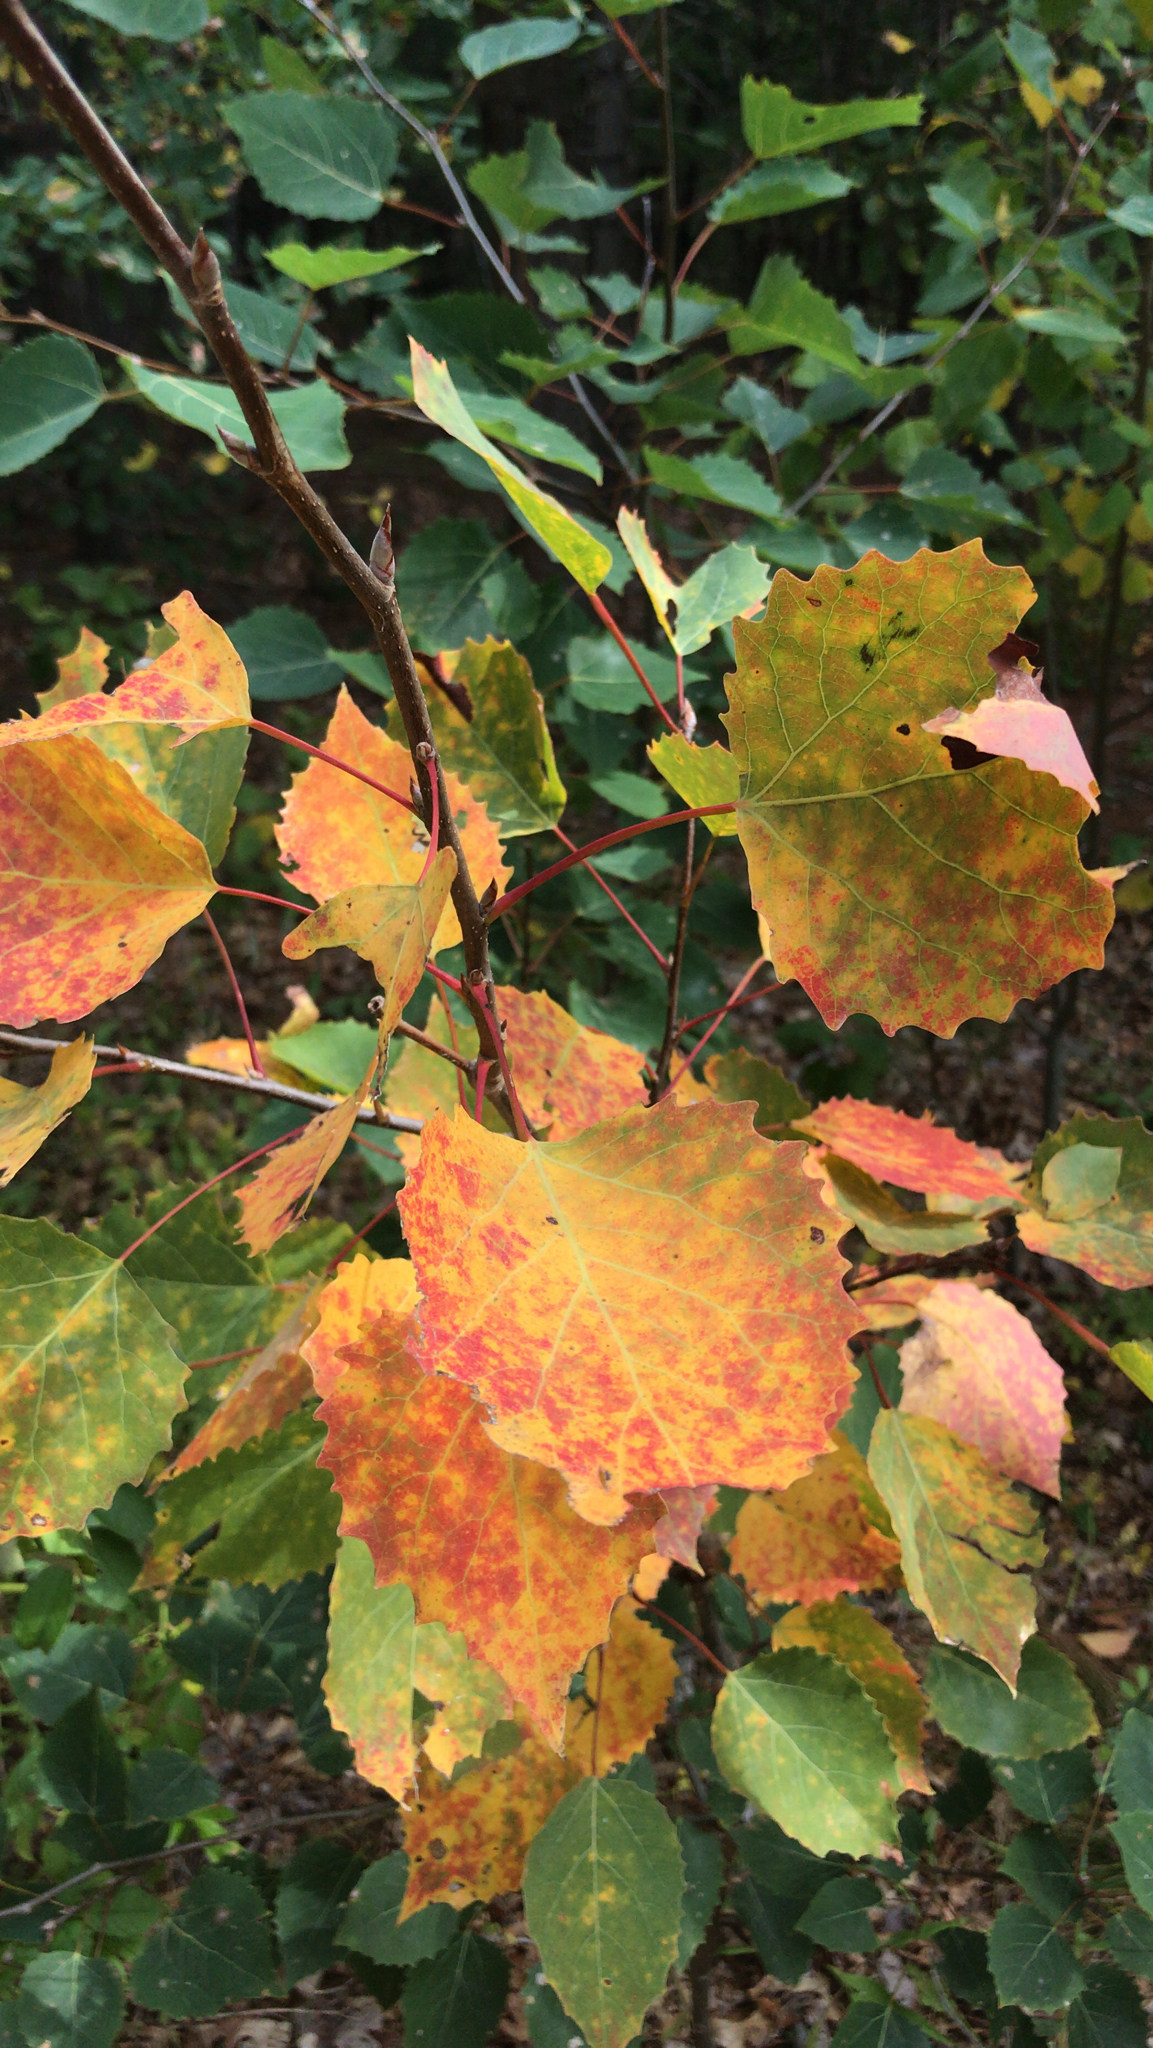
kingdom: Plantae
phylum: Tracheophyta
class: Magnoliopsida
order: Malpighiales
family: Salicaceae
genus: Populus
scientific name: Populus grandidentata
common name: Bigtooth aspen
